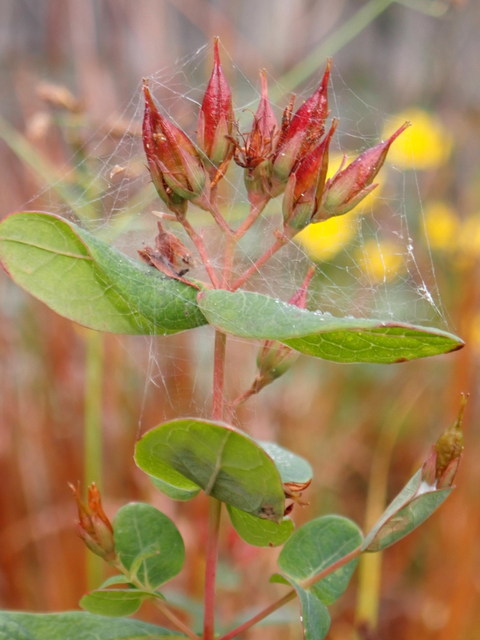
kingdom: Plantae
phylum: Tracheophyta
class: Magnoliopsida
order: Malpighiales
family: Hypericaceae
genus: Triadenum
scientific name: Triadenum walteri
